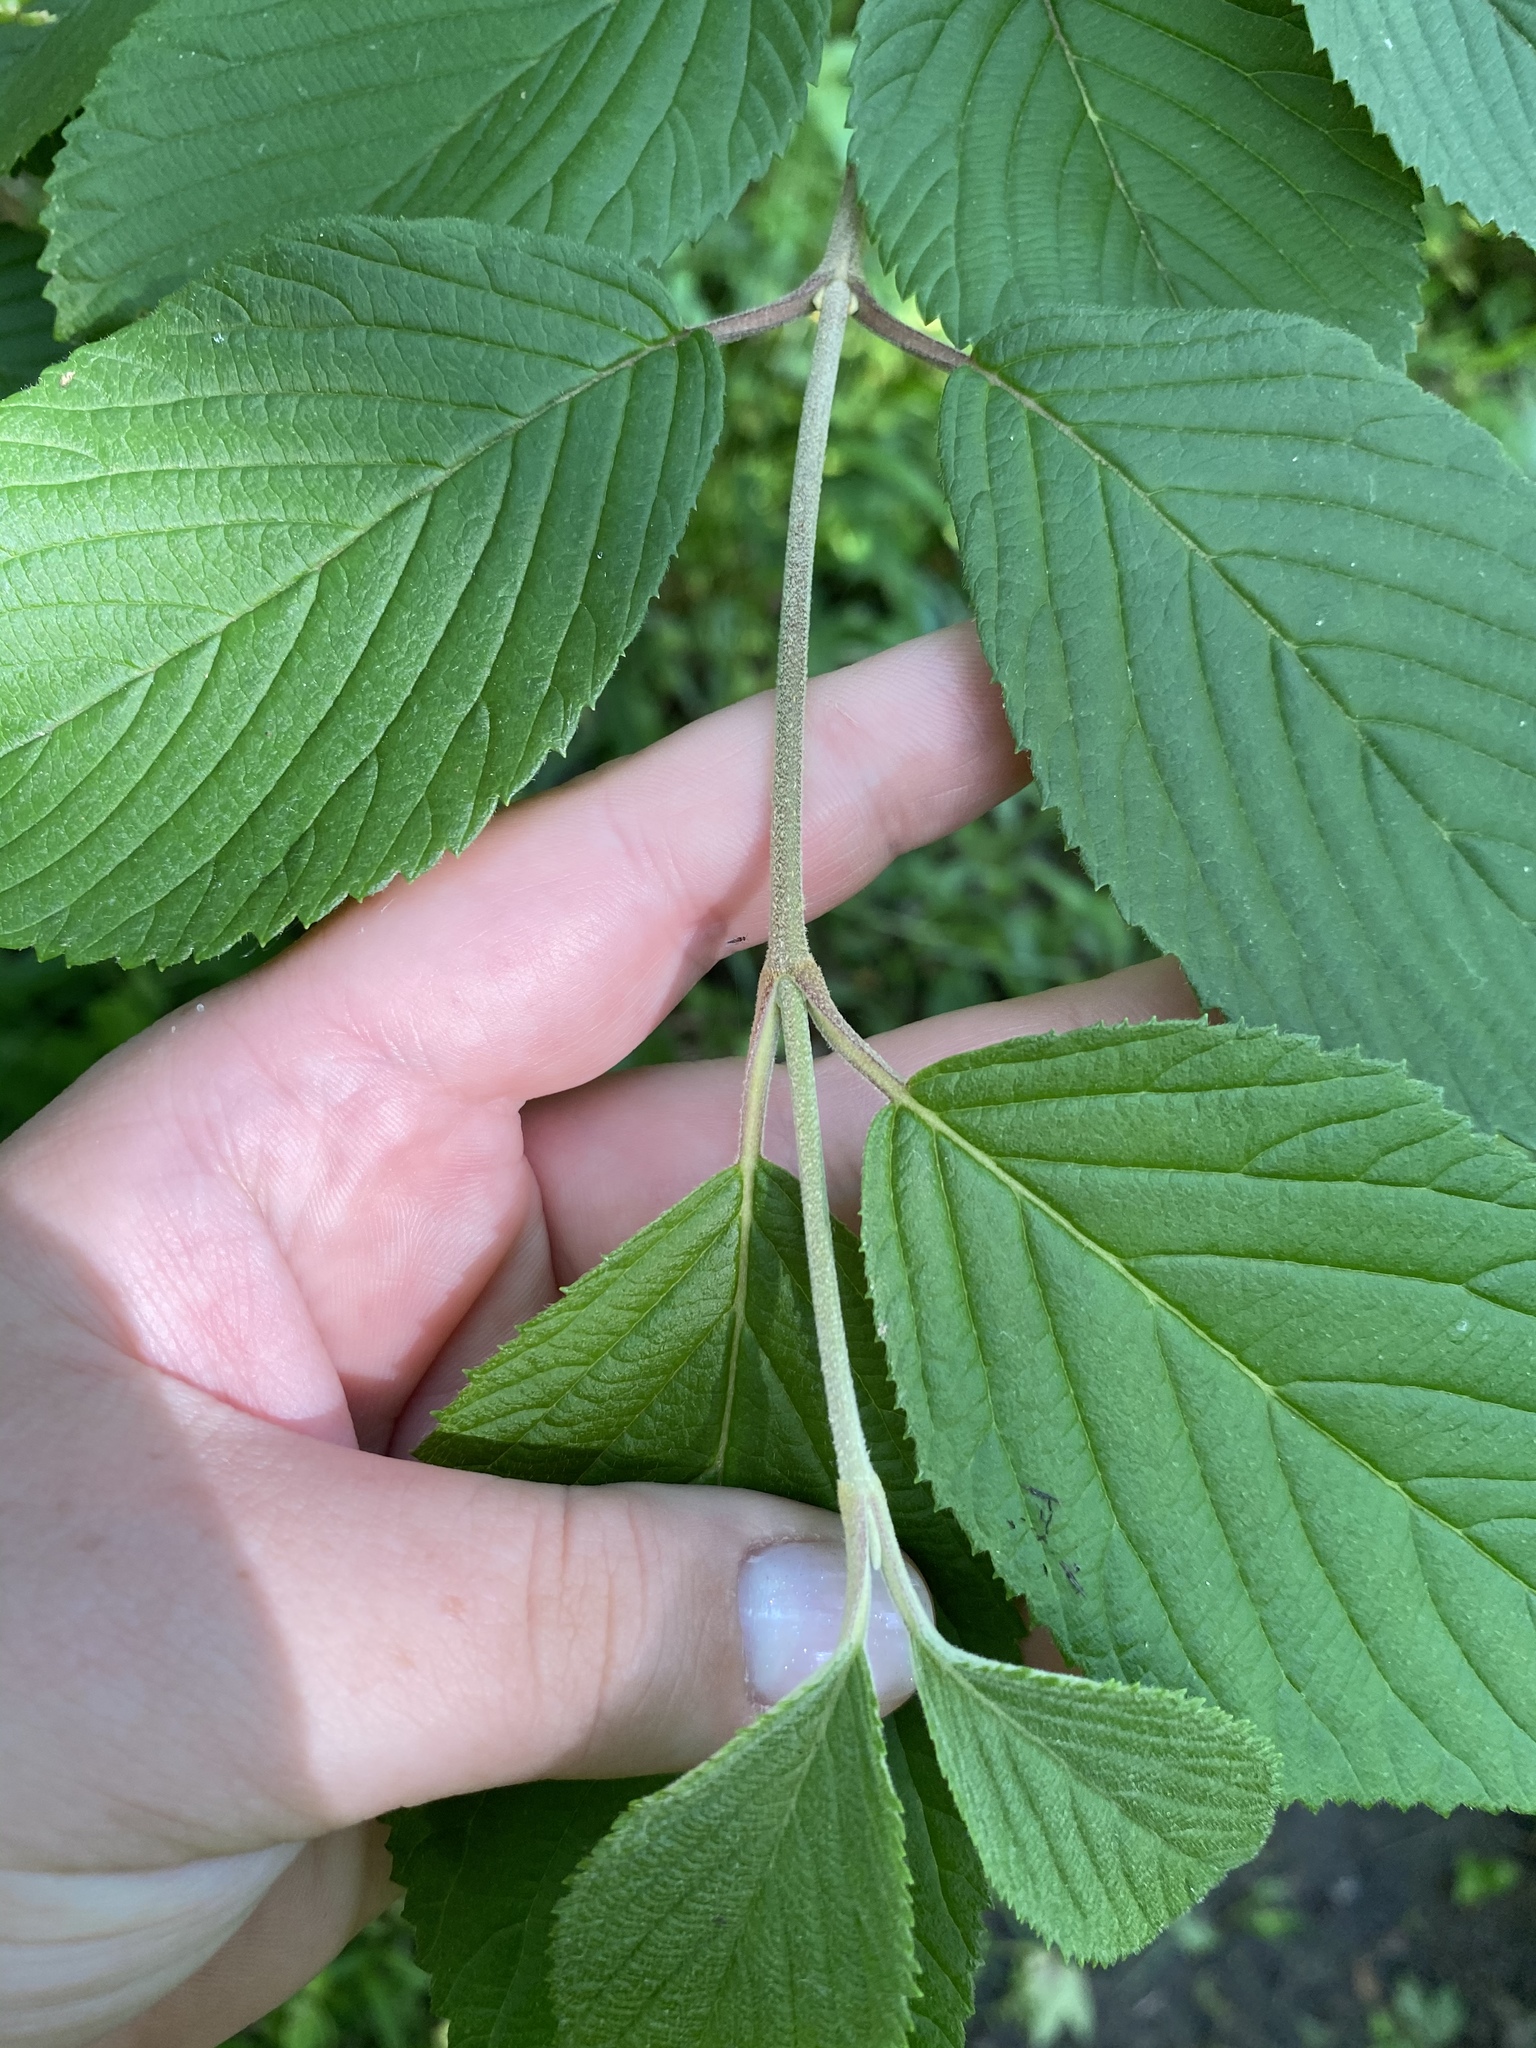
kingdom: Plantae
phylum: Tracheophyta
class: Magnoliopsida
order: Dipsacales
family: Viburnaceae
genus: Viburnum
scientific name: Viburnum plicatum
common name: Japanese snowball
